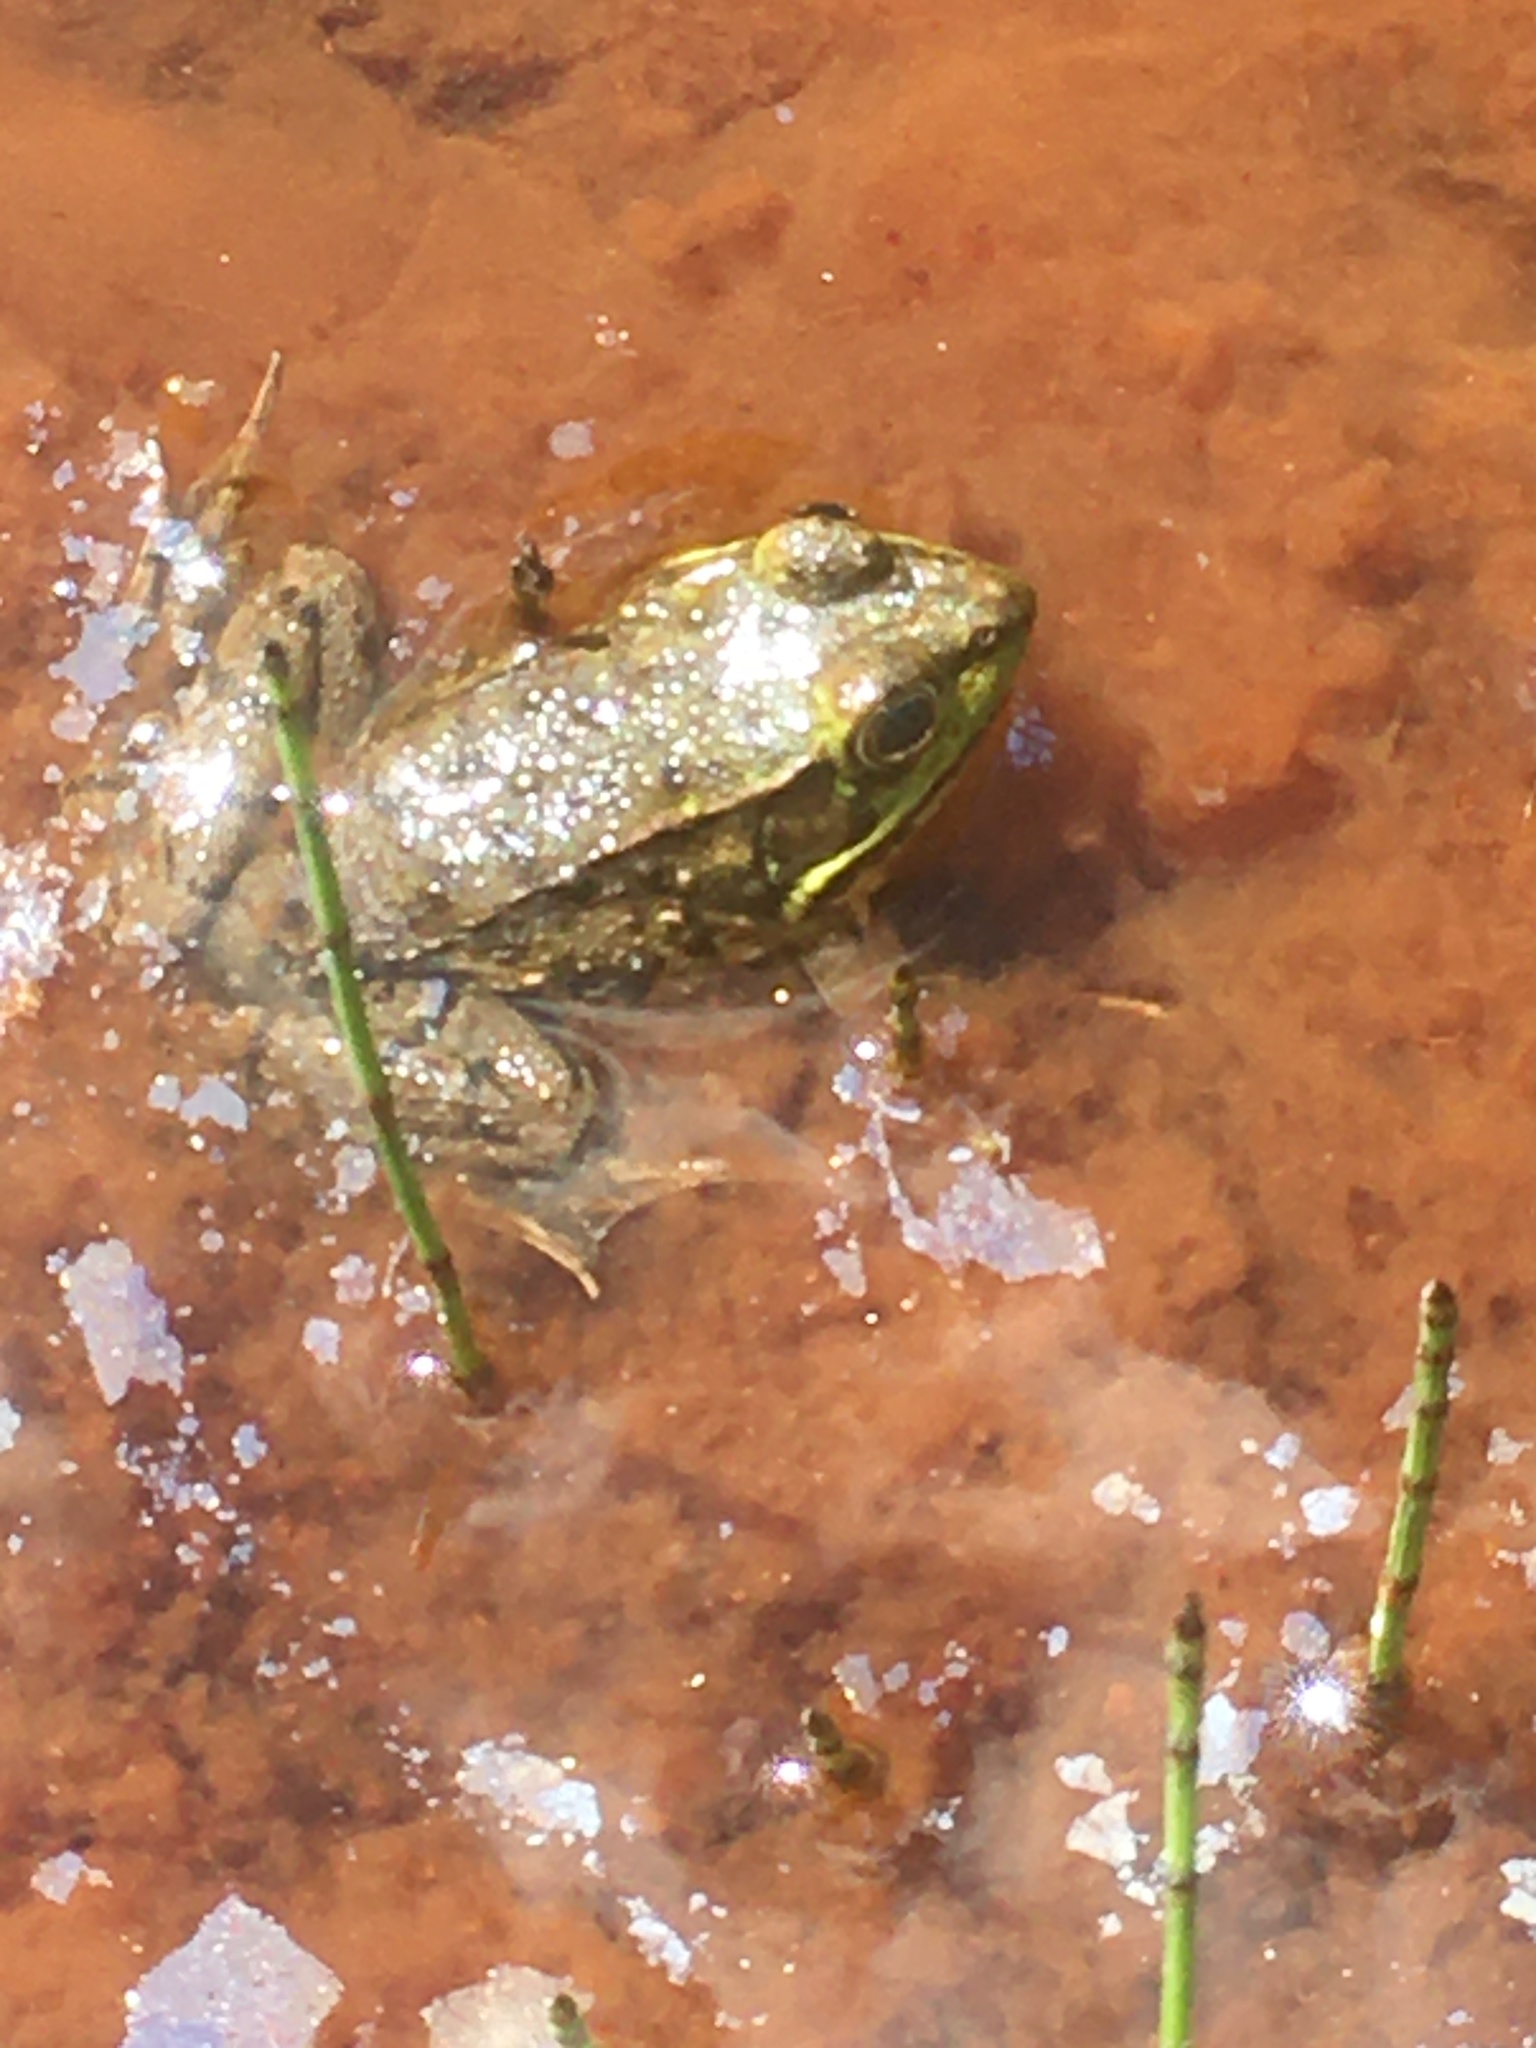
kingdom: Animalia
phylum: Chordata
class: Amphibia
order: Anura
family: Ranidae
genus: Lithobates
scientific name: Lithobates clamitans
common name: Green frog
